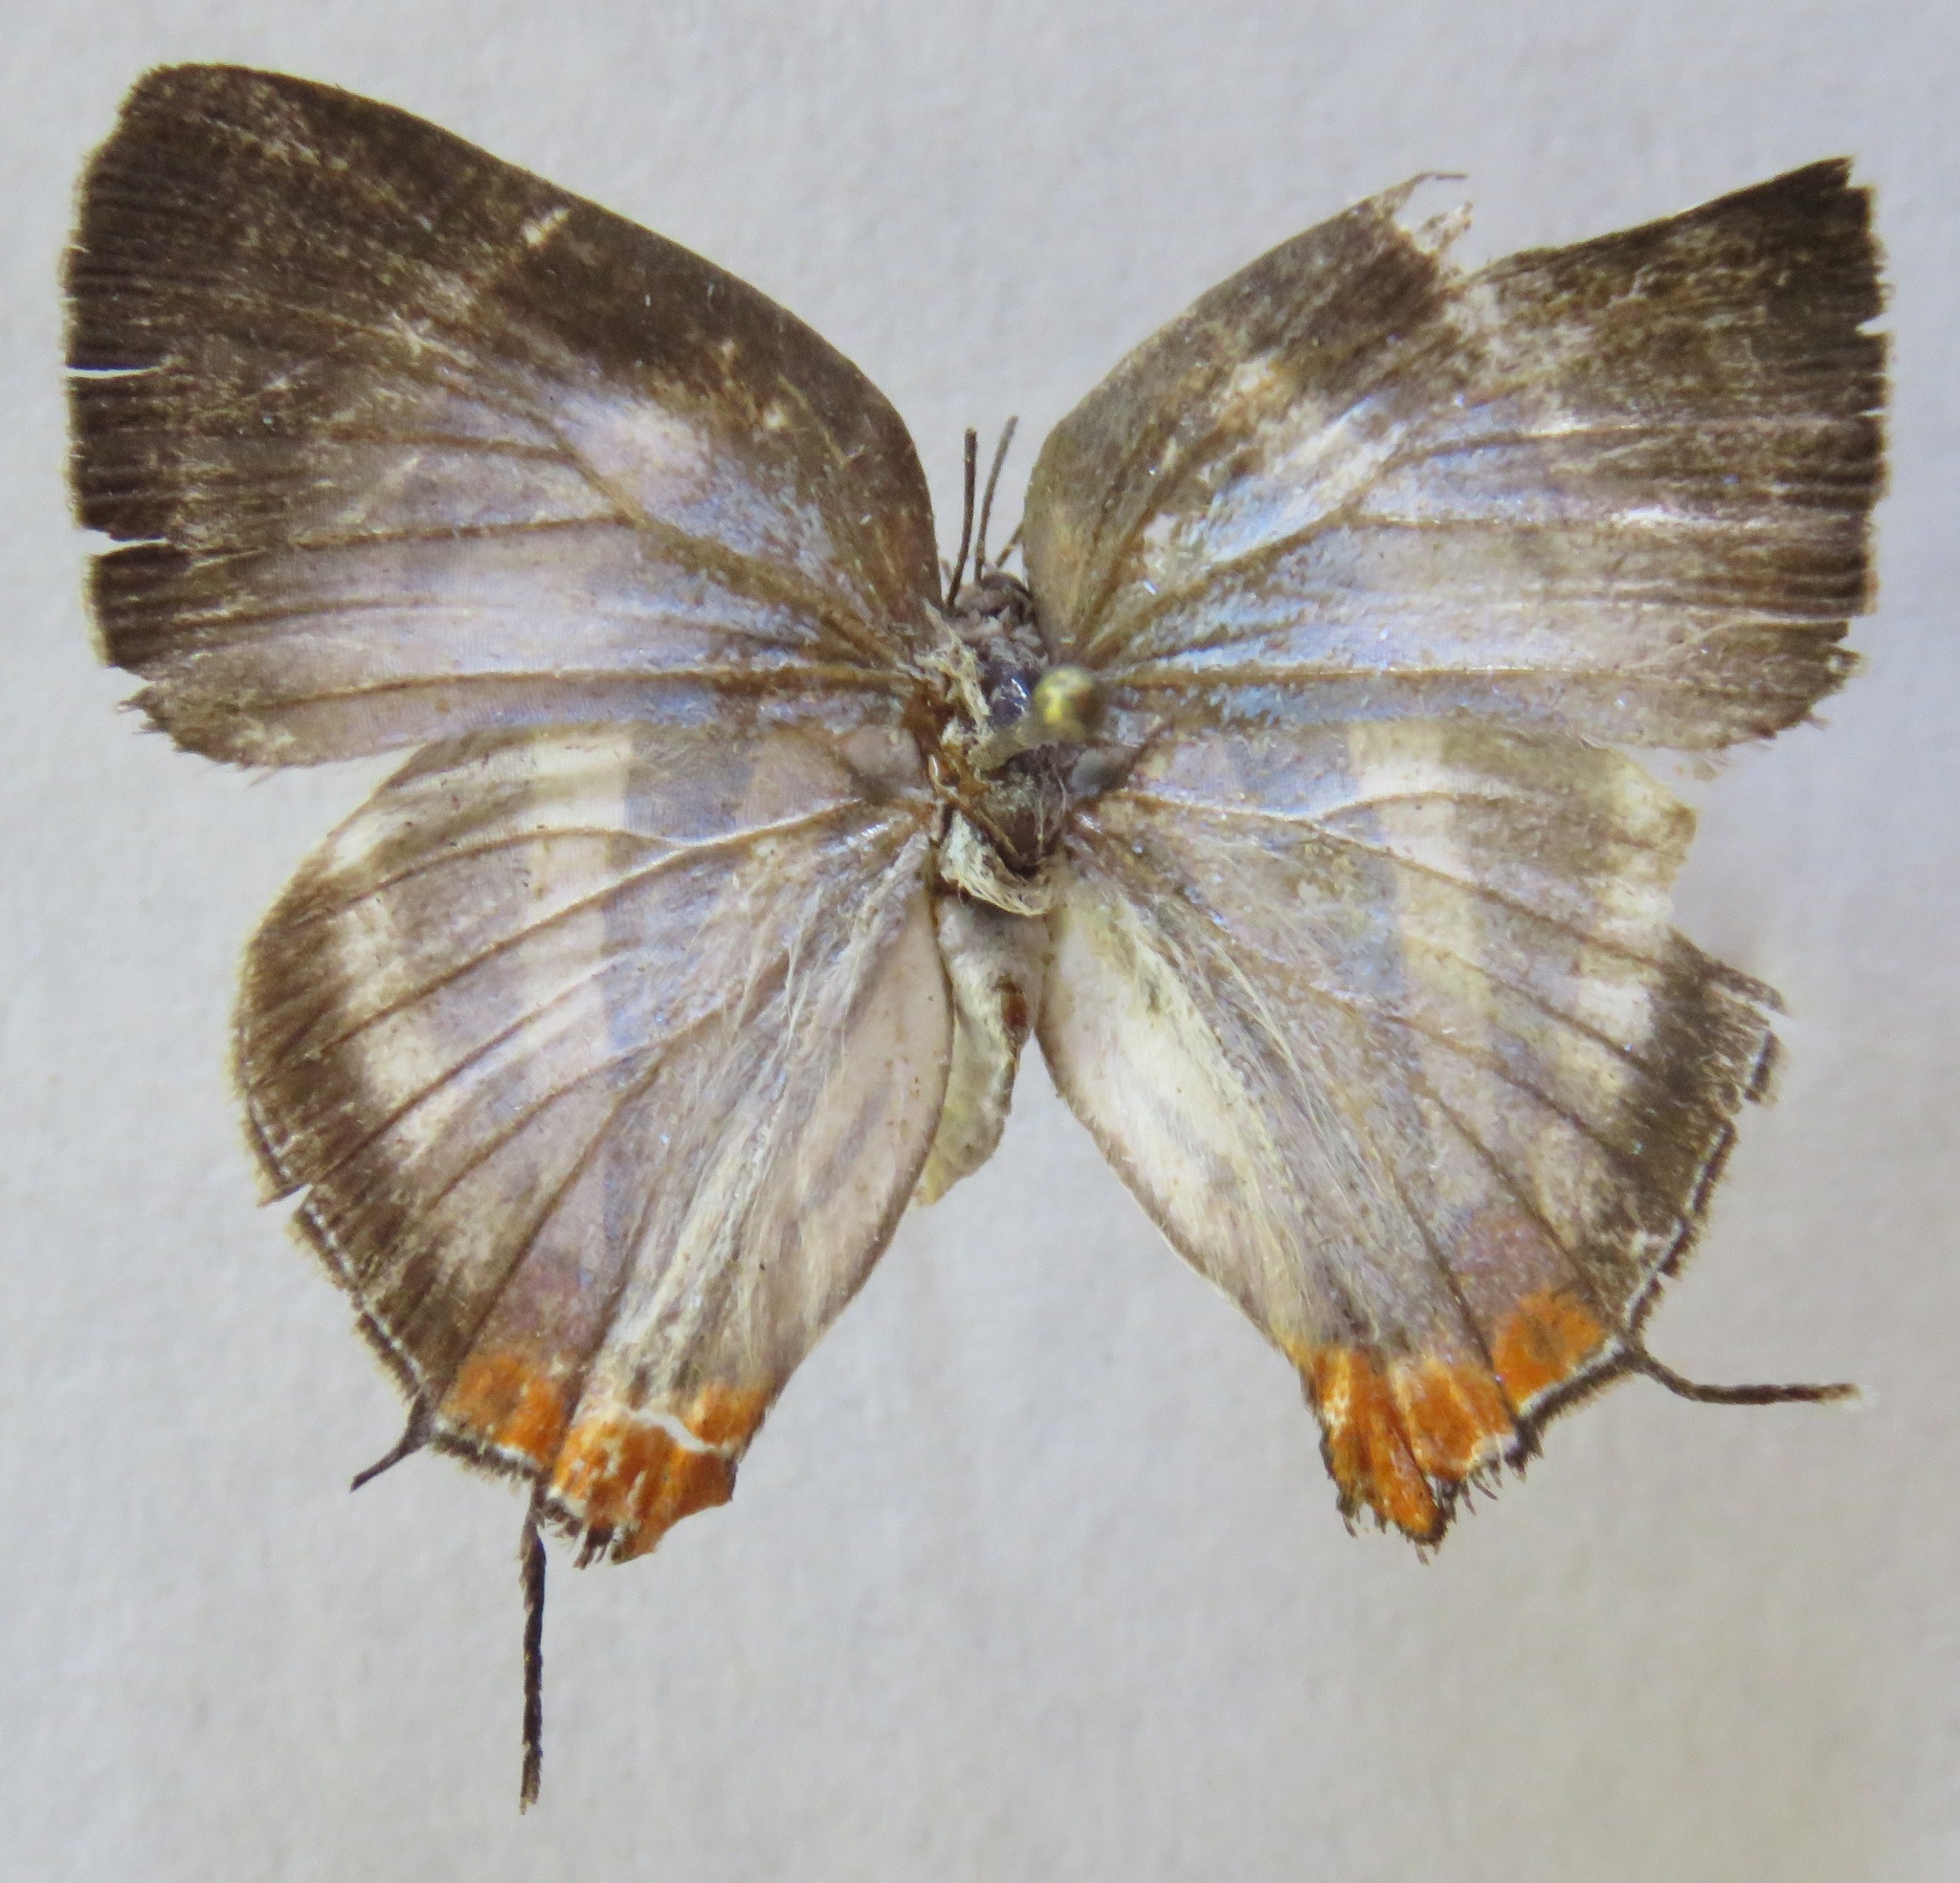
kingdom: Animalia
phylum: Arthropoda
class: Insecta
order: Lepidoptera
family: Lycaenidae
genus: Thecla
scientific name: Thecla bathildis
